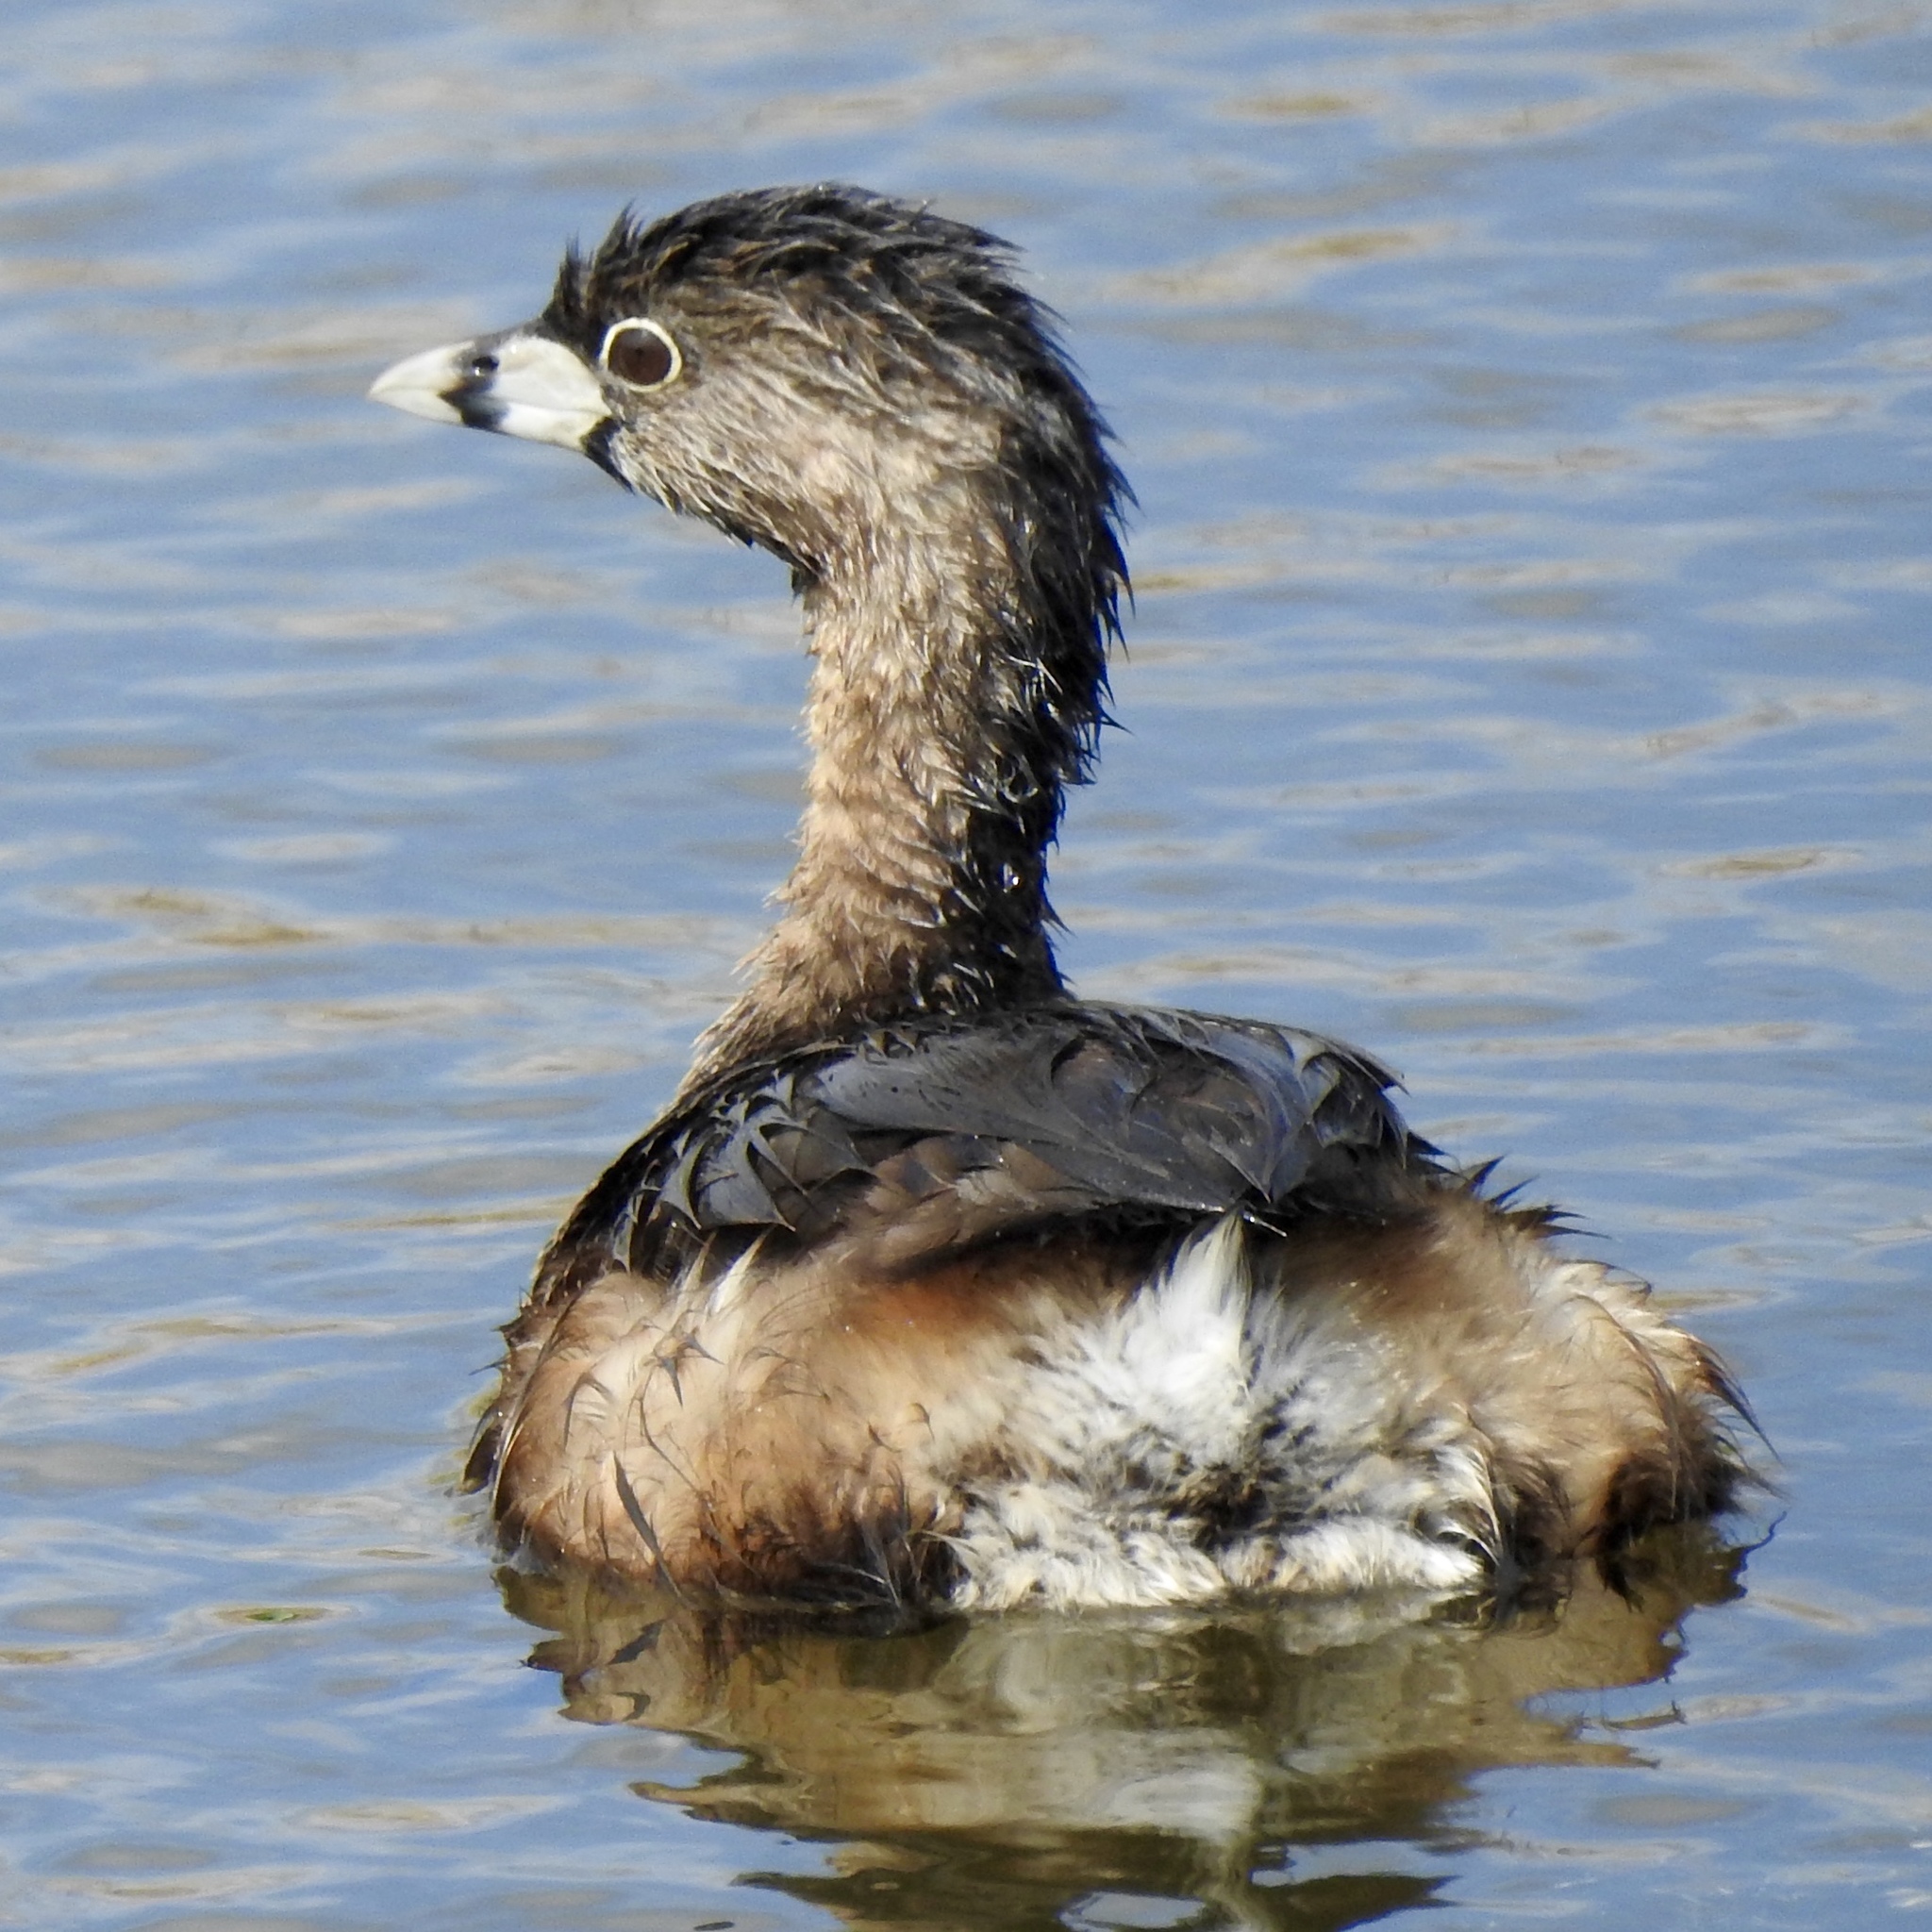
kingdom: Animalia
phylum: Chordata
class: Aves
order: Podicipediformes
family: Podicipedidae
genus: Podilymbus
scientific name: Podilymbus podiceps
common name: Pied-billed grebe
